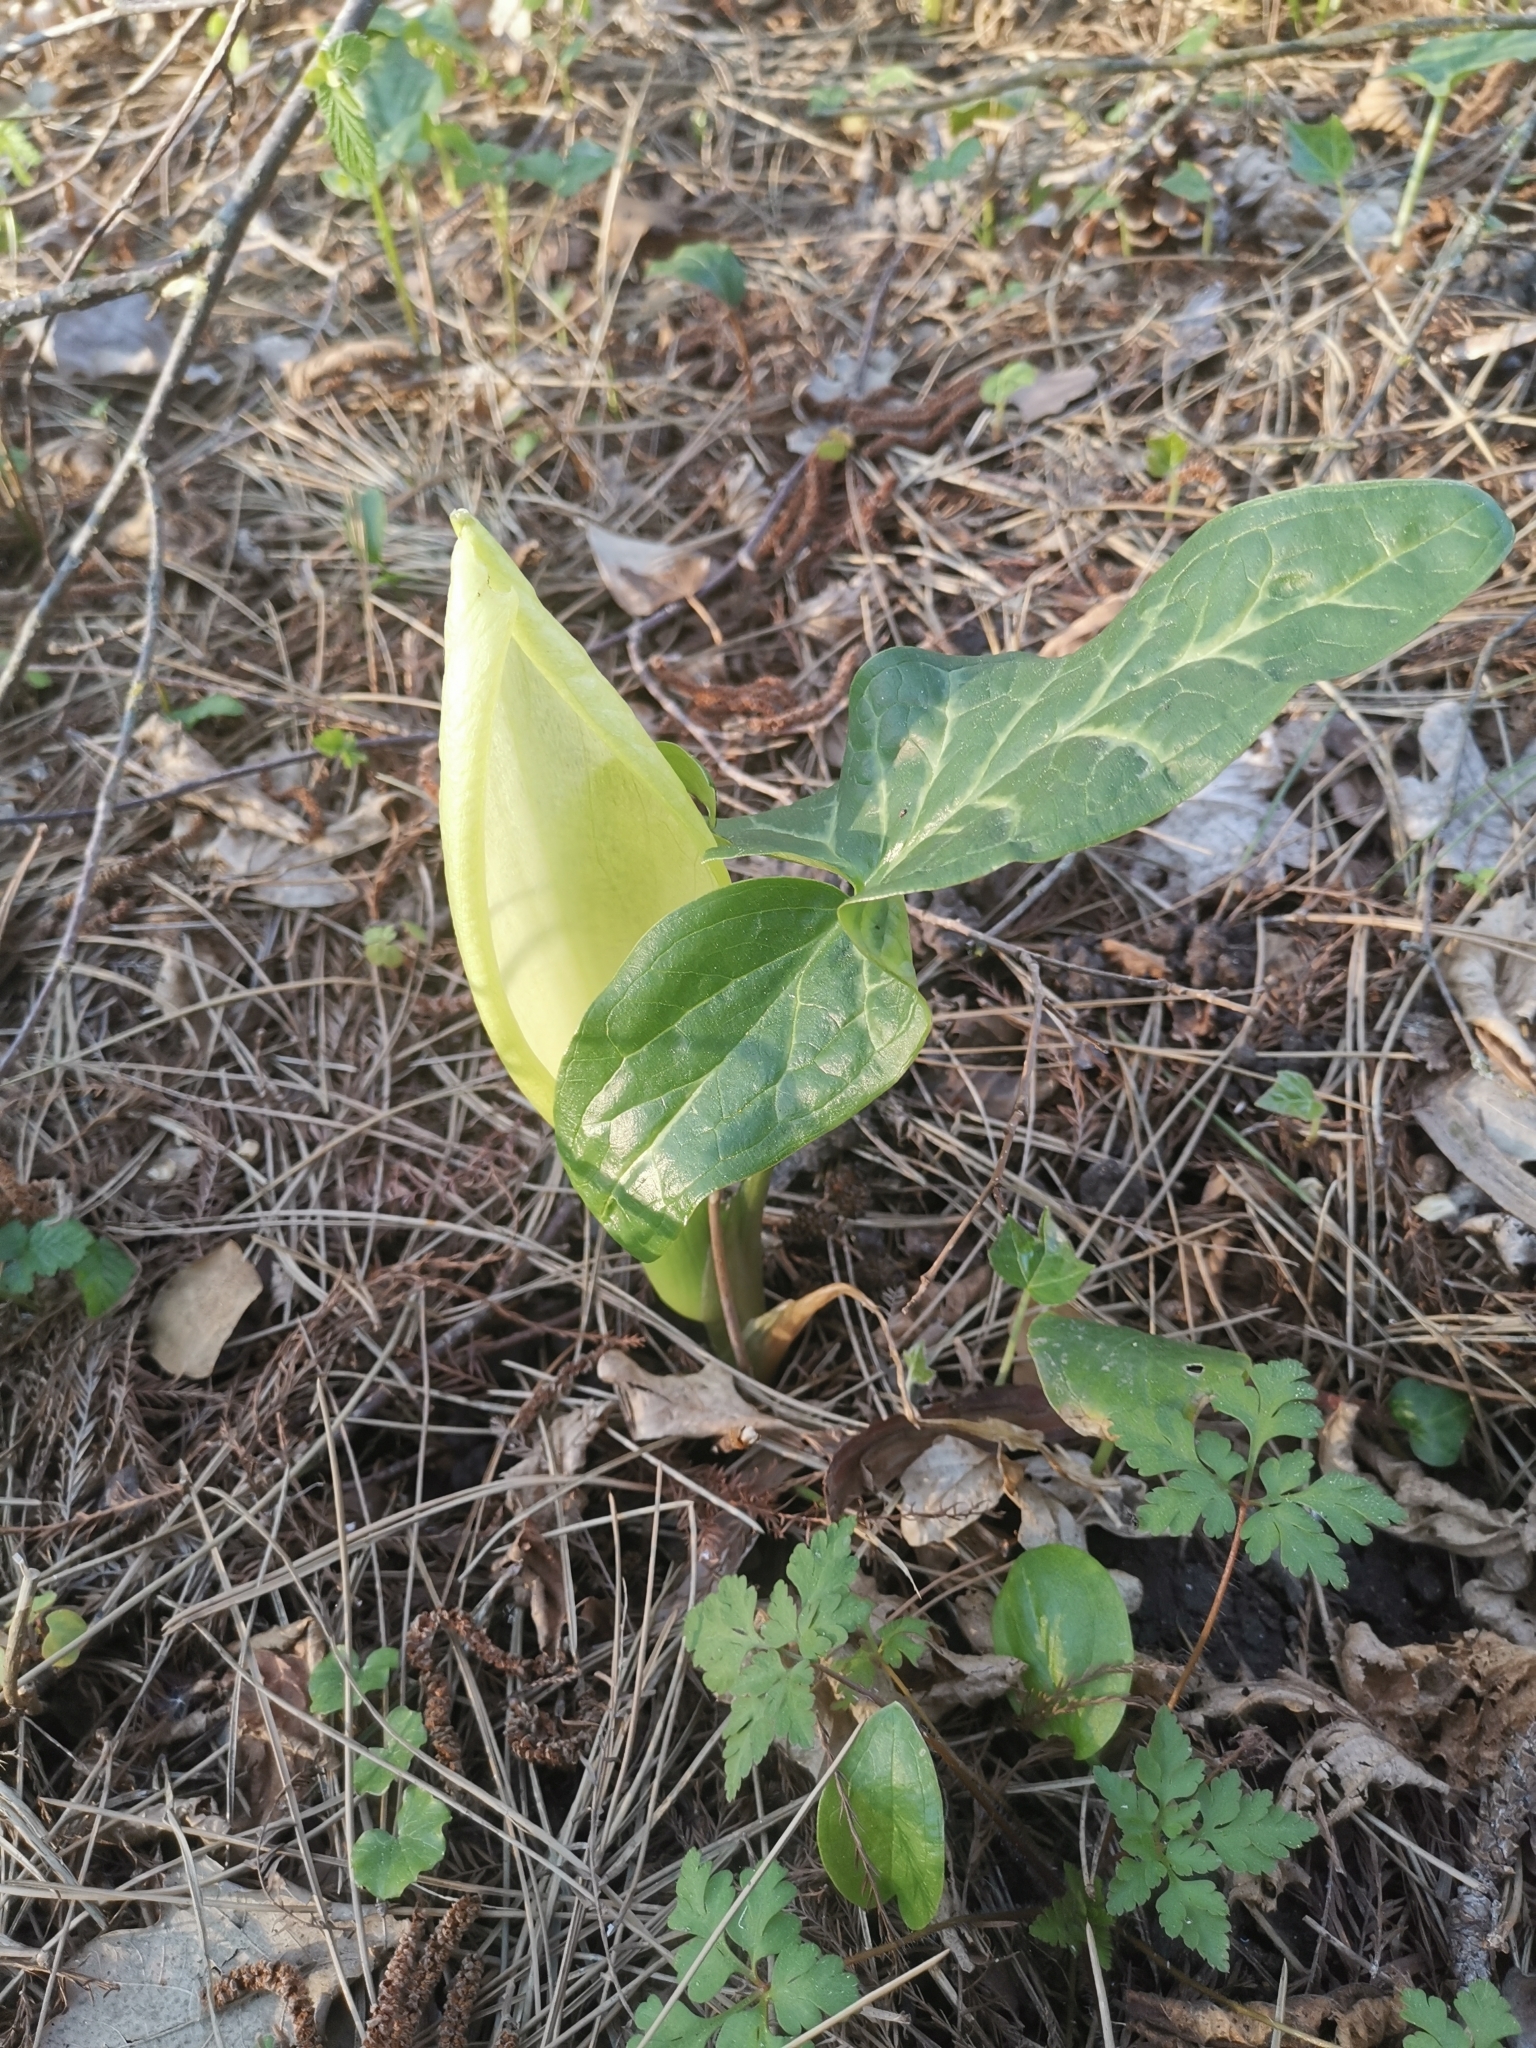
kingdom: Plantae
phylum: Tracheophyta
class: Liliopsida
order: Alismatales
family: Araceae
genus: Arum
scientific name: Arum italicum
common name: Italian lords-and-ladies
